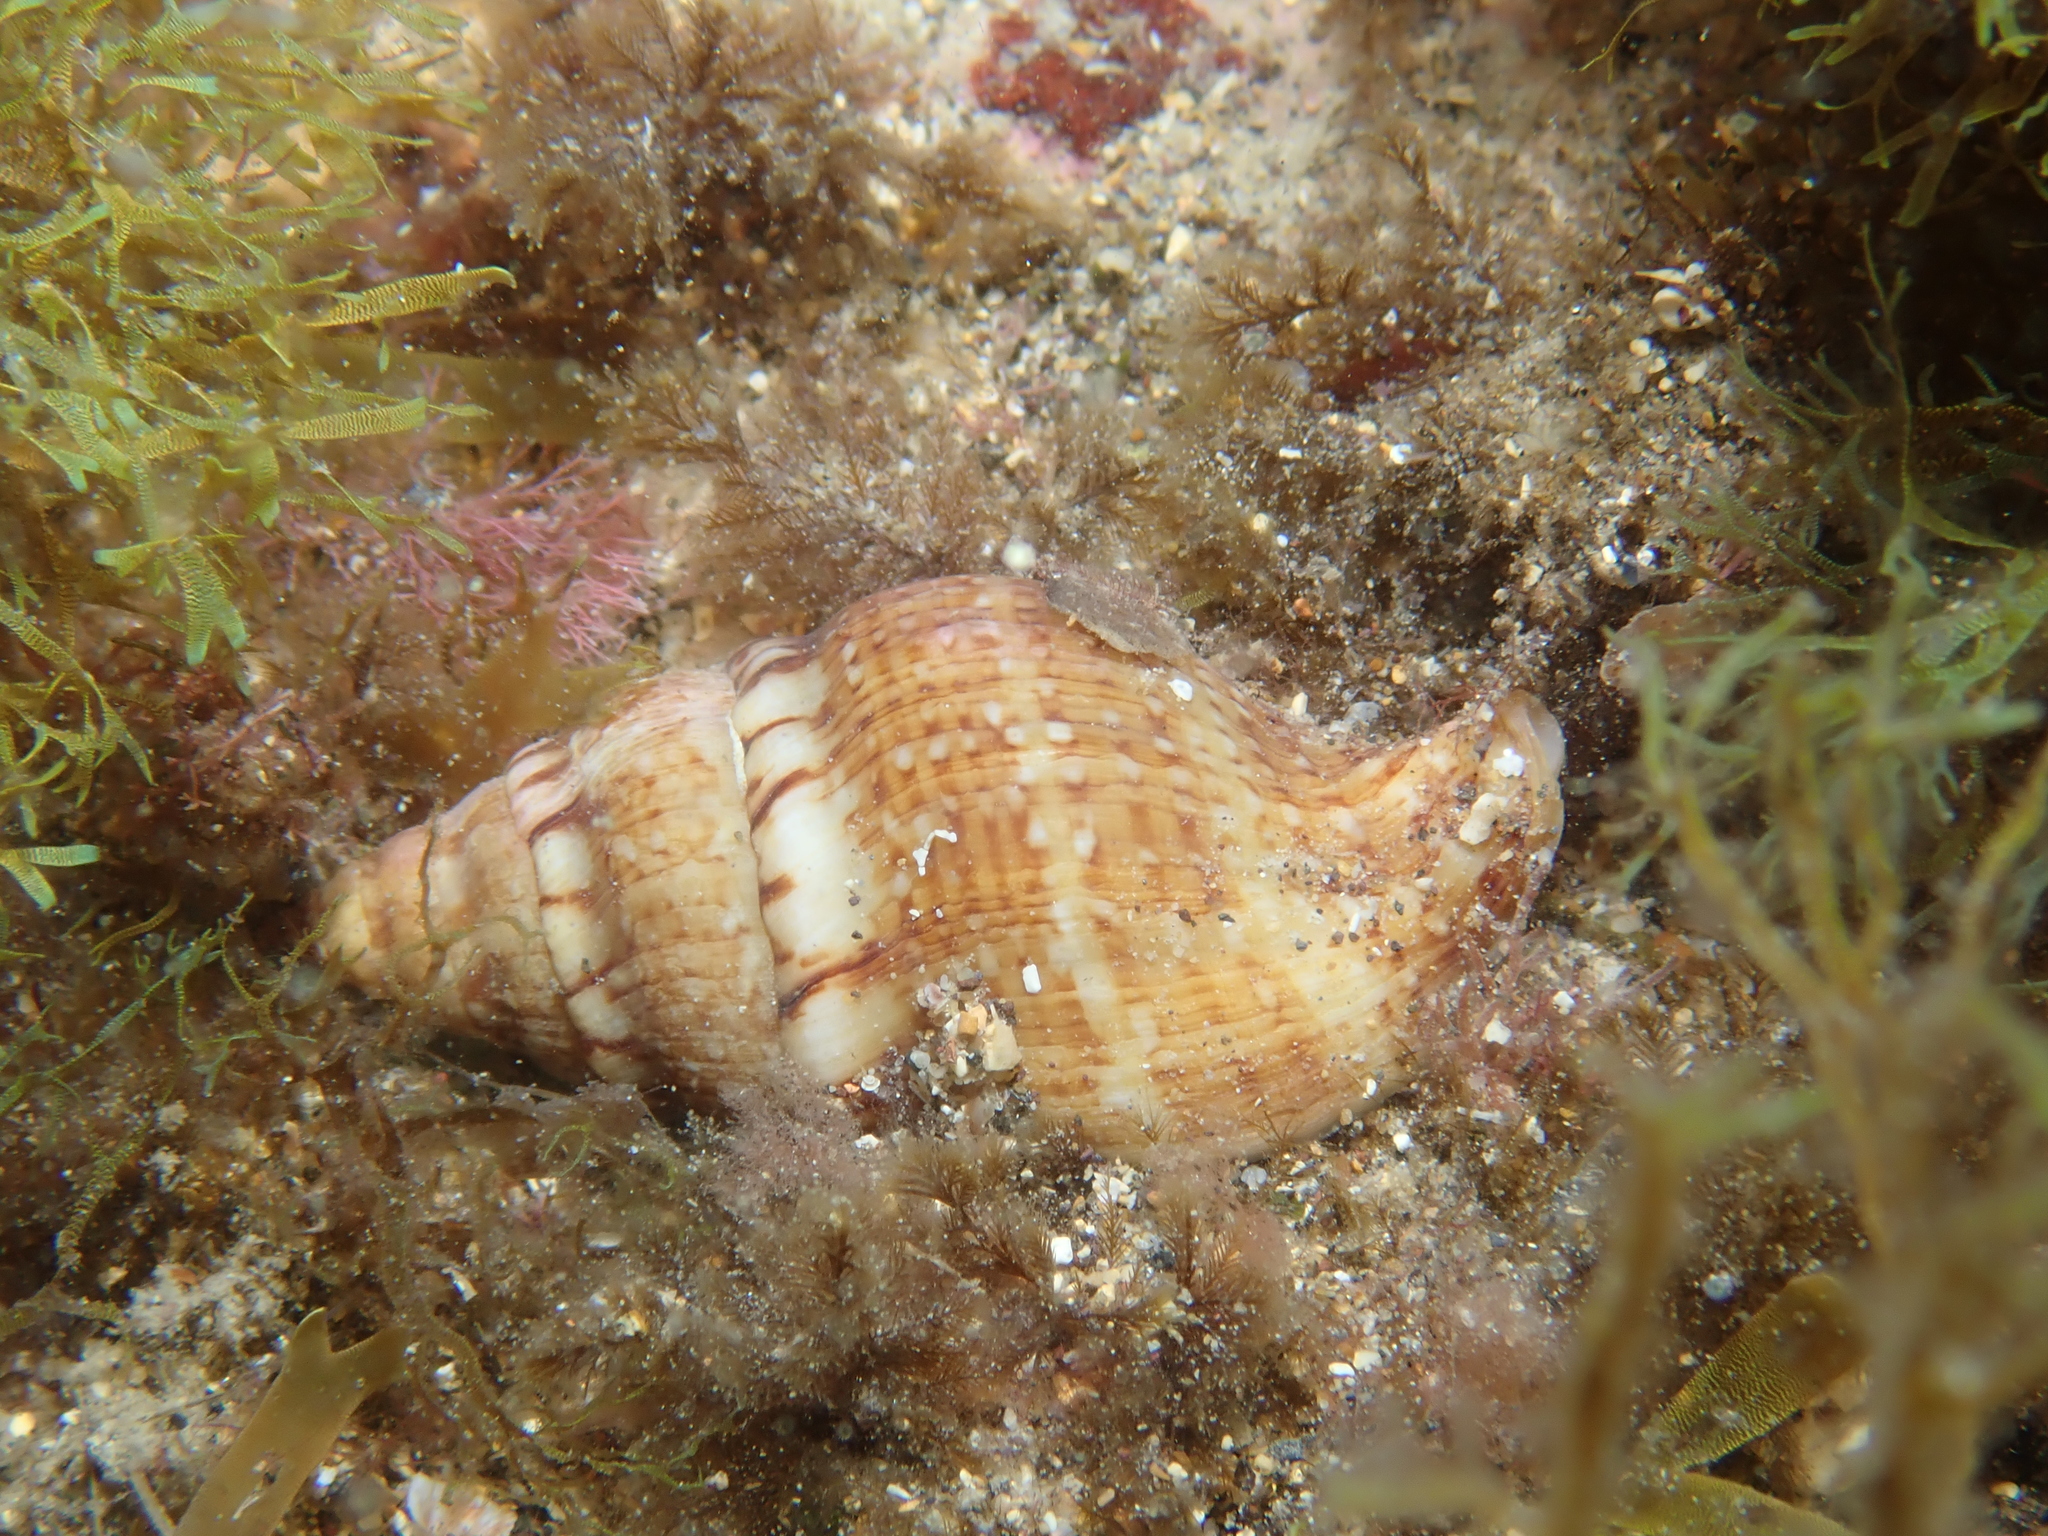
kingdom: Animalia
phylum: Mollusca
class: Gastropoda
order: Neogastropoda
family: Tudiclidae
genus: Euthria
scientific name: Euthria cornea
